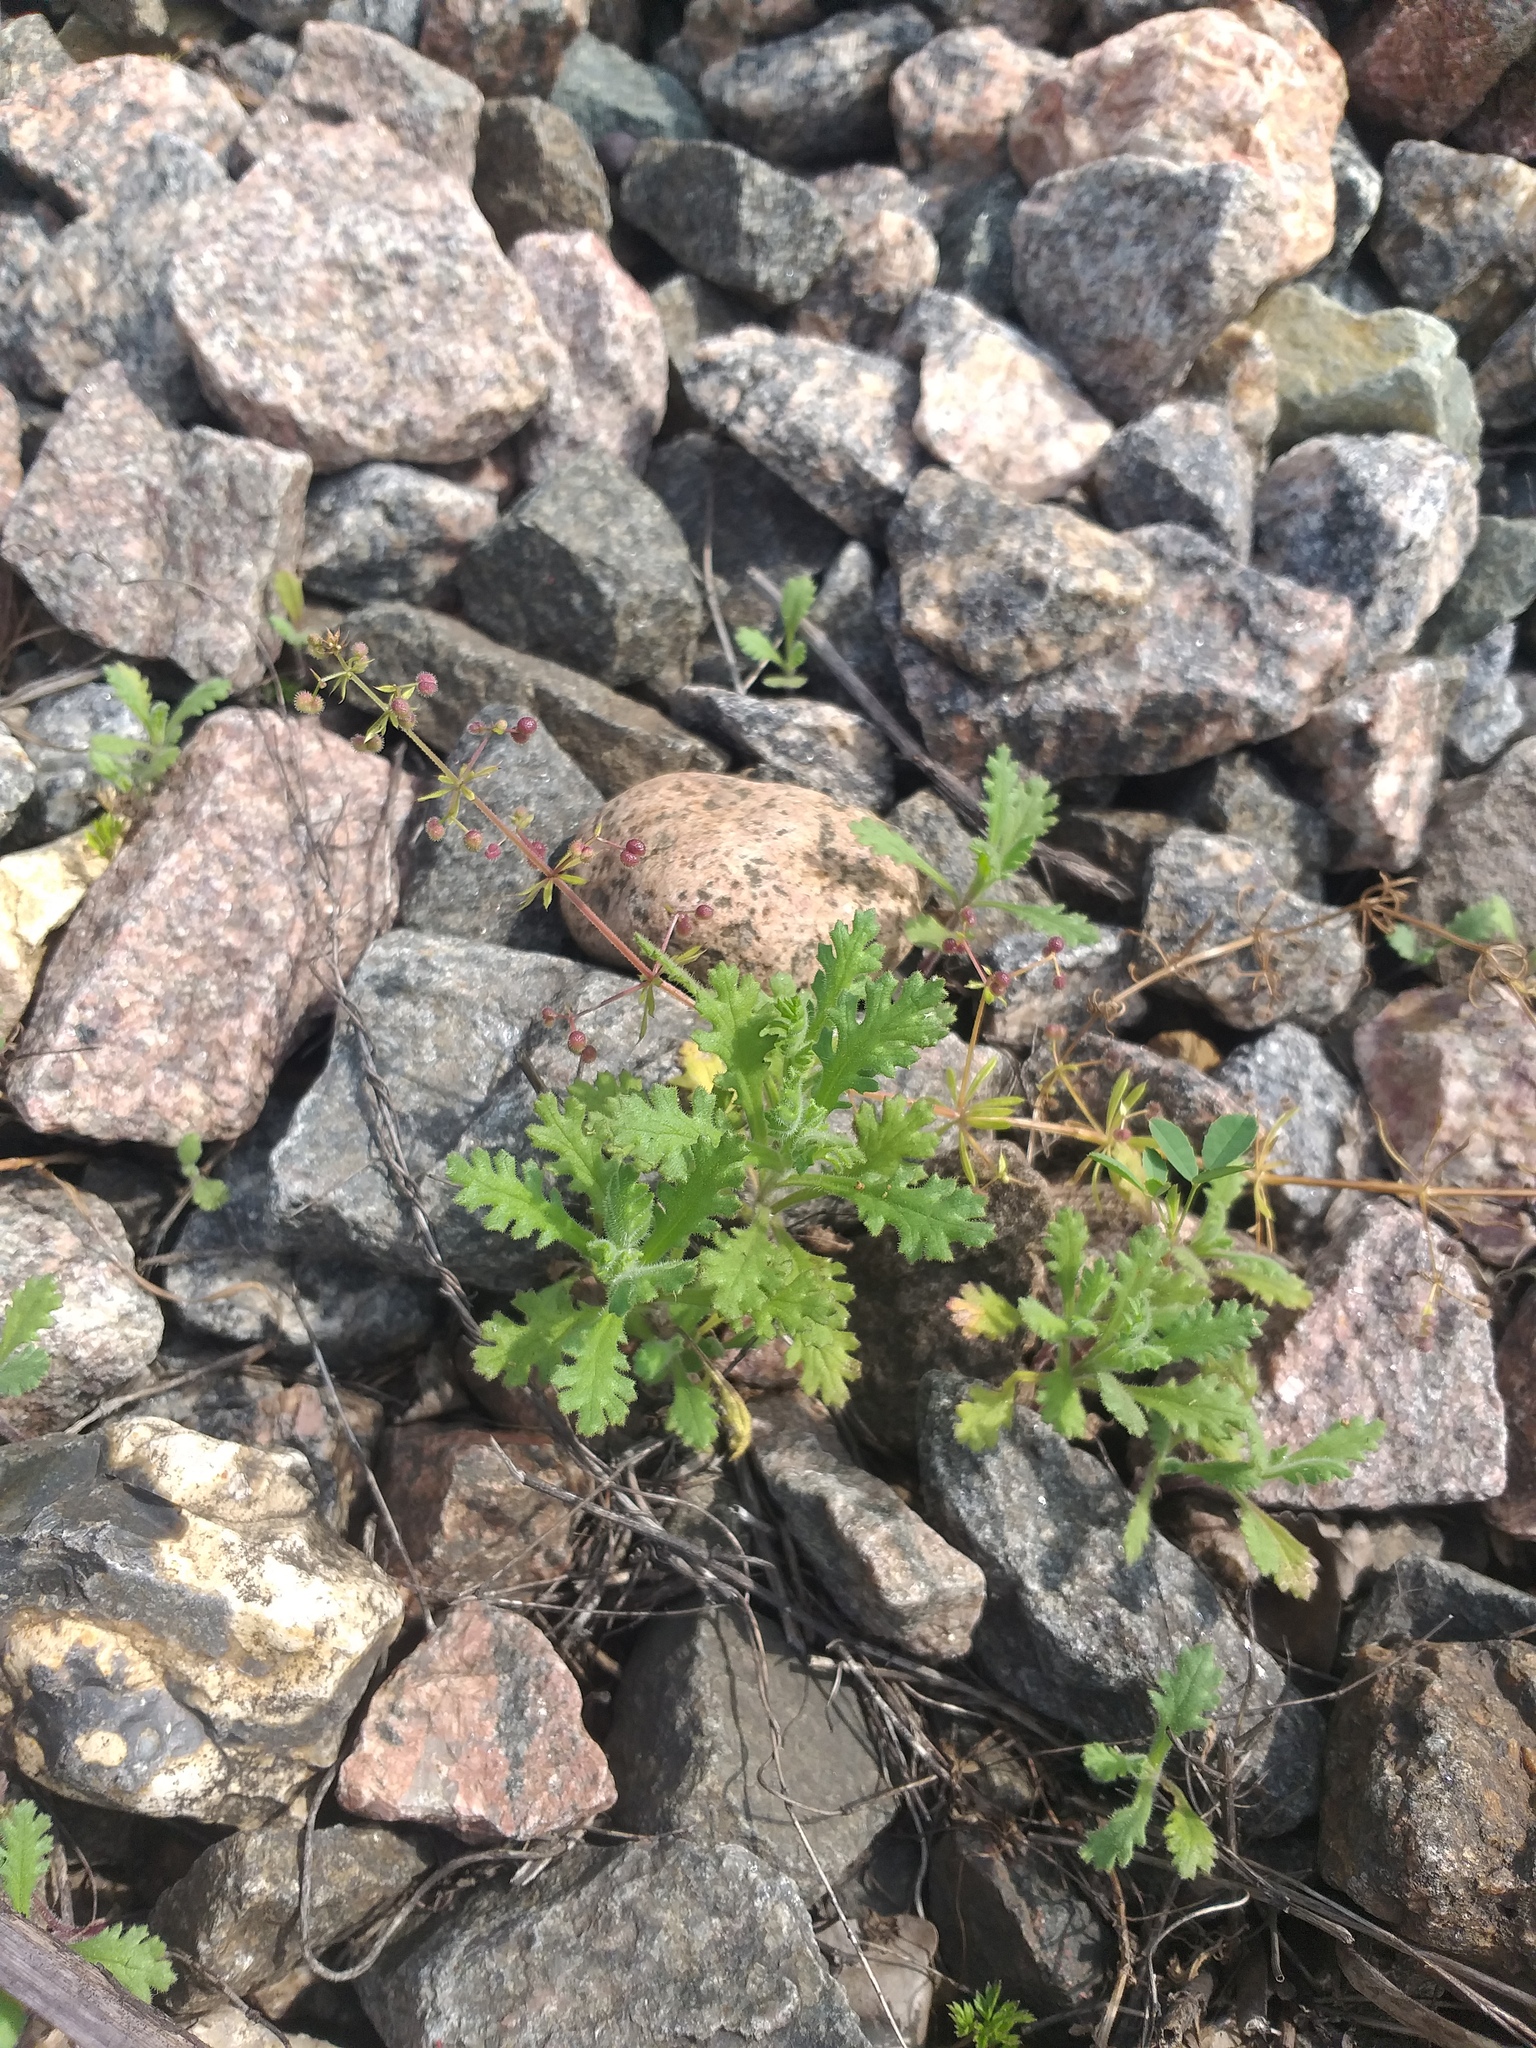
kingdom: Plantae
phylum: Tracheophyta
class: Magnoliopsida
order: Asterales
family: Asteraceae
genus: Senecio
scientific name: Senecio viscosus
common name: Sticky groundsel
